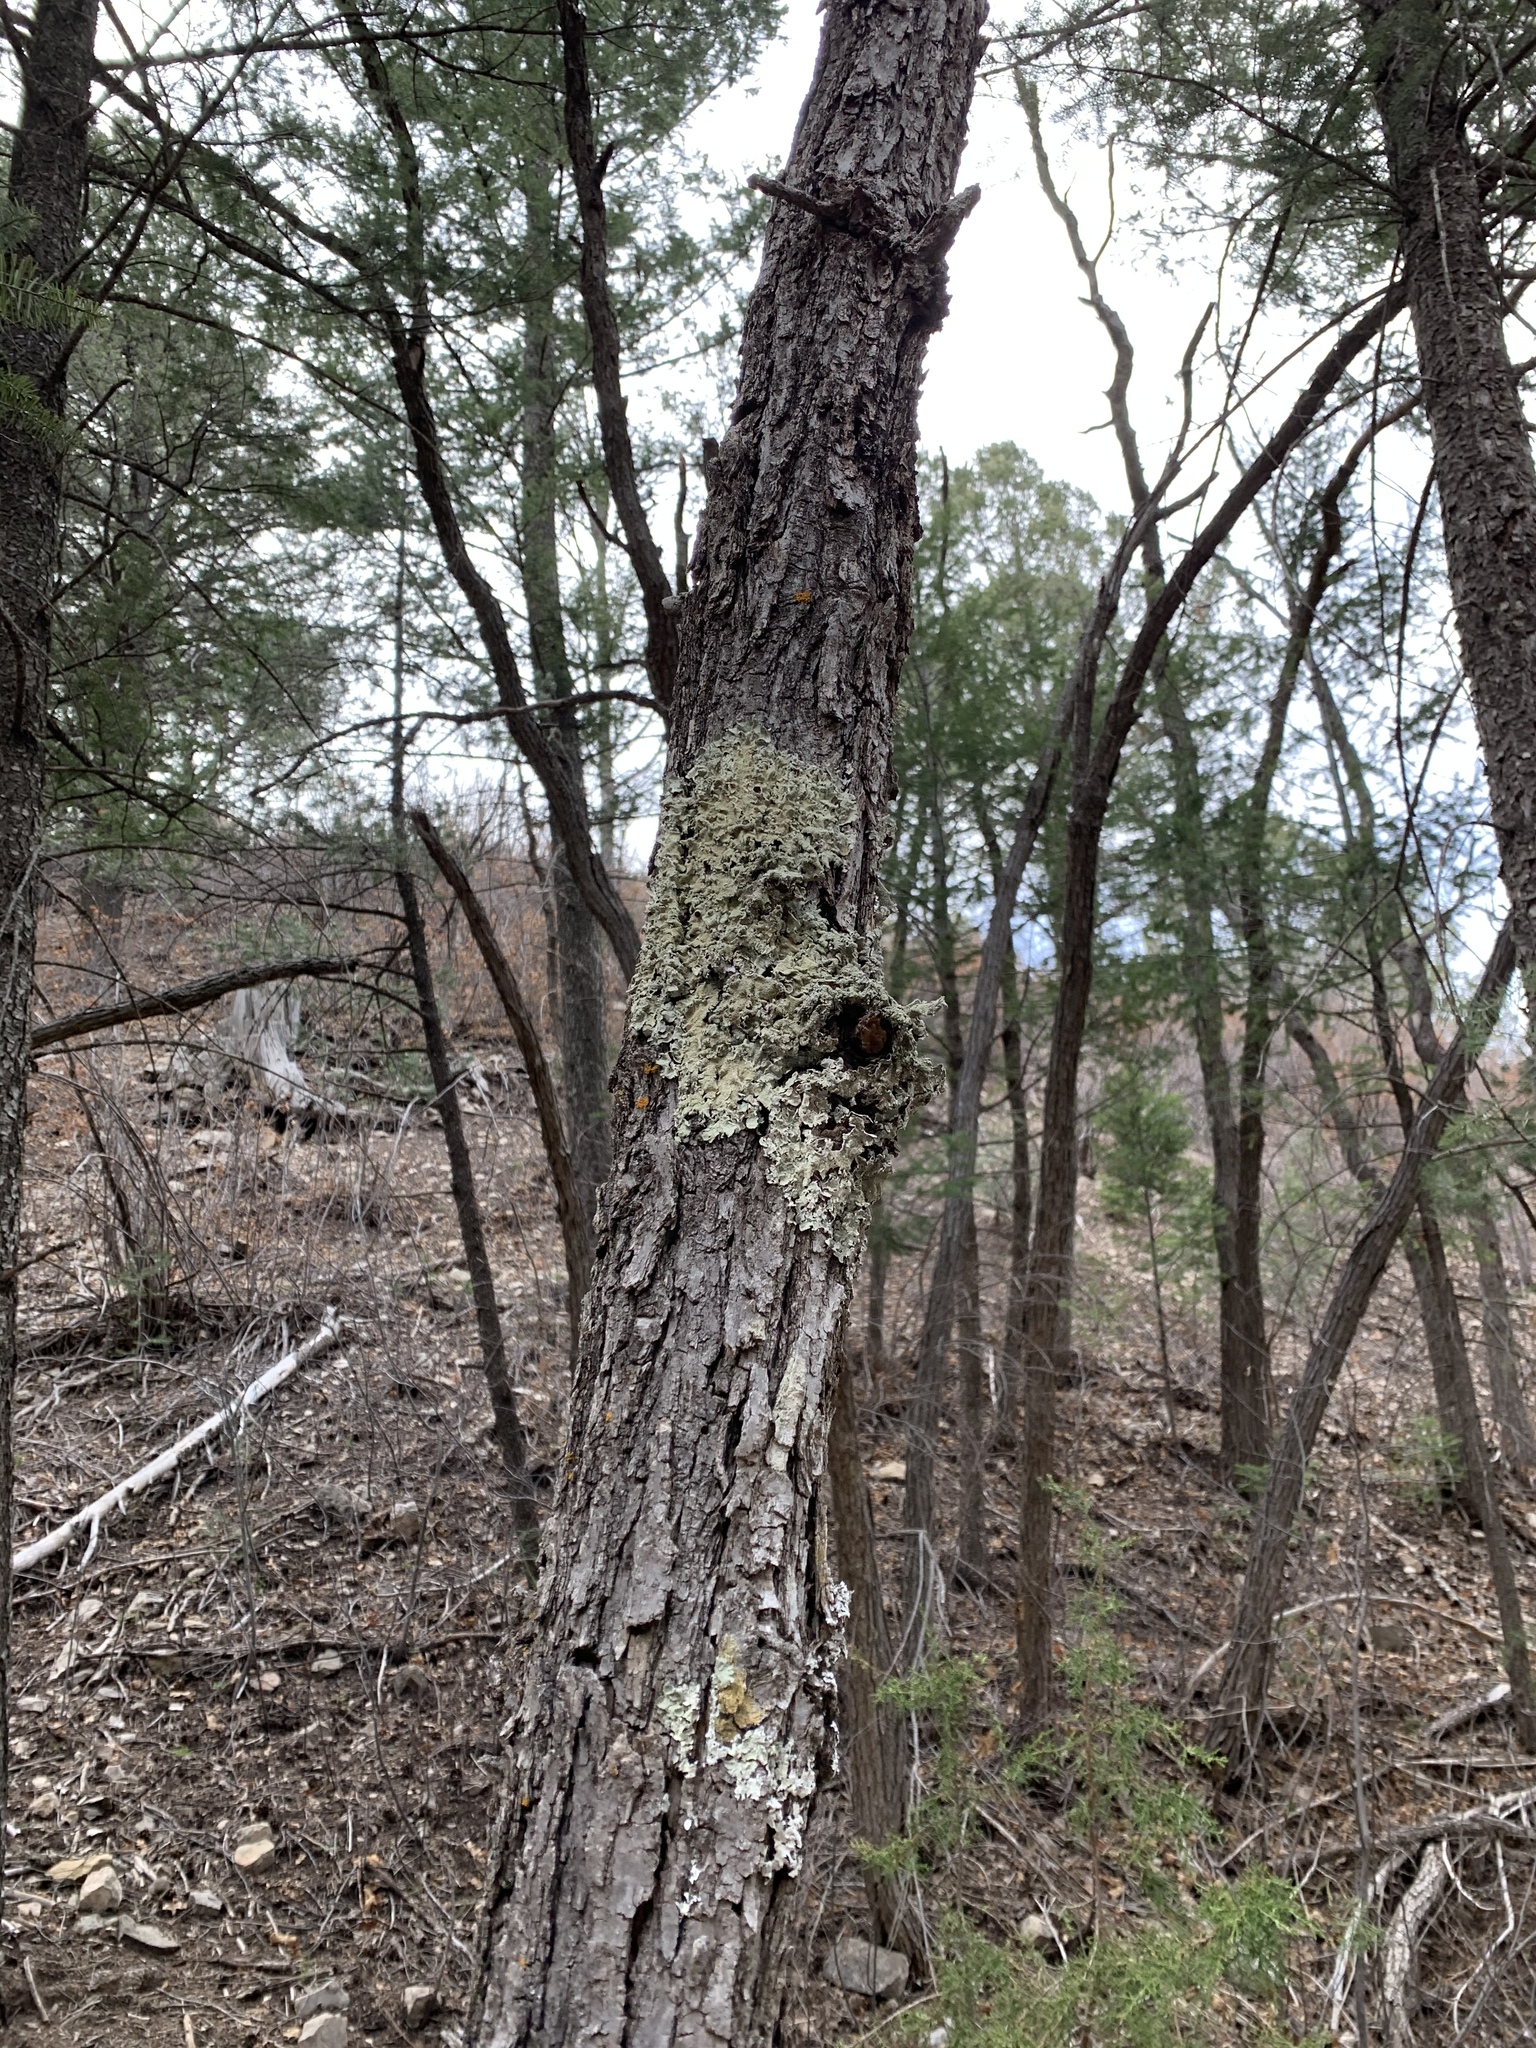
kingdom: Fungi
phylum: Ascomycota
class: Lecanoromycetes
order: Lecanorales
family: Parmeliaceae
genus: Flavoparmelia
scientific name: Flavoparmelia caperata
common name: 40-mile per hour lichen
